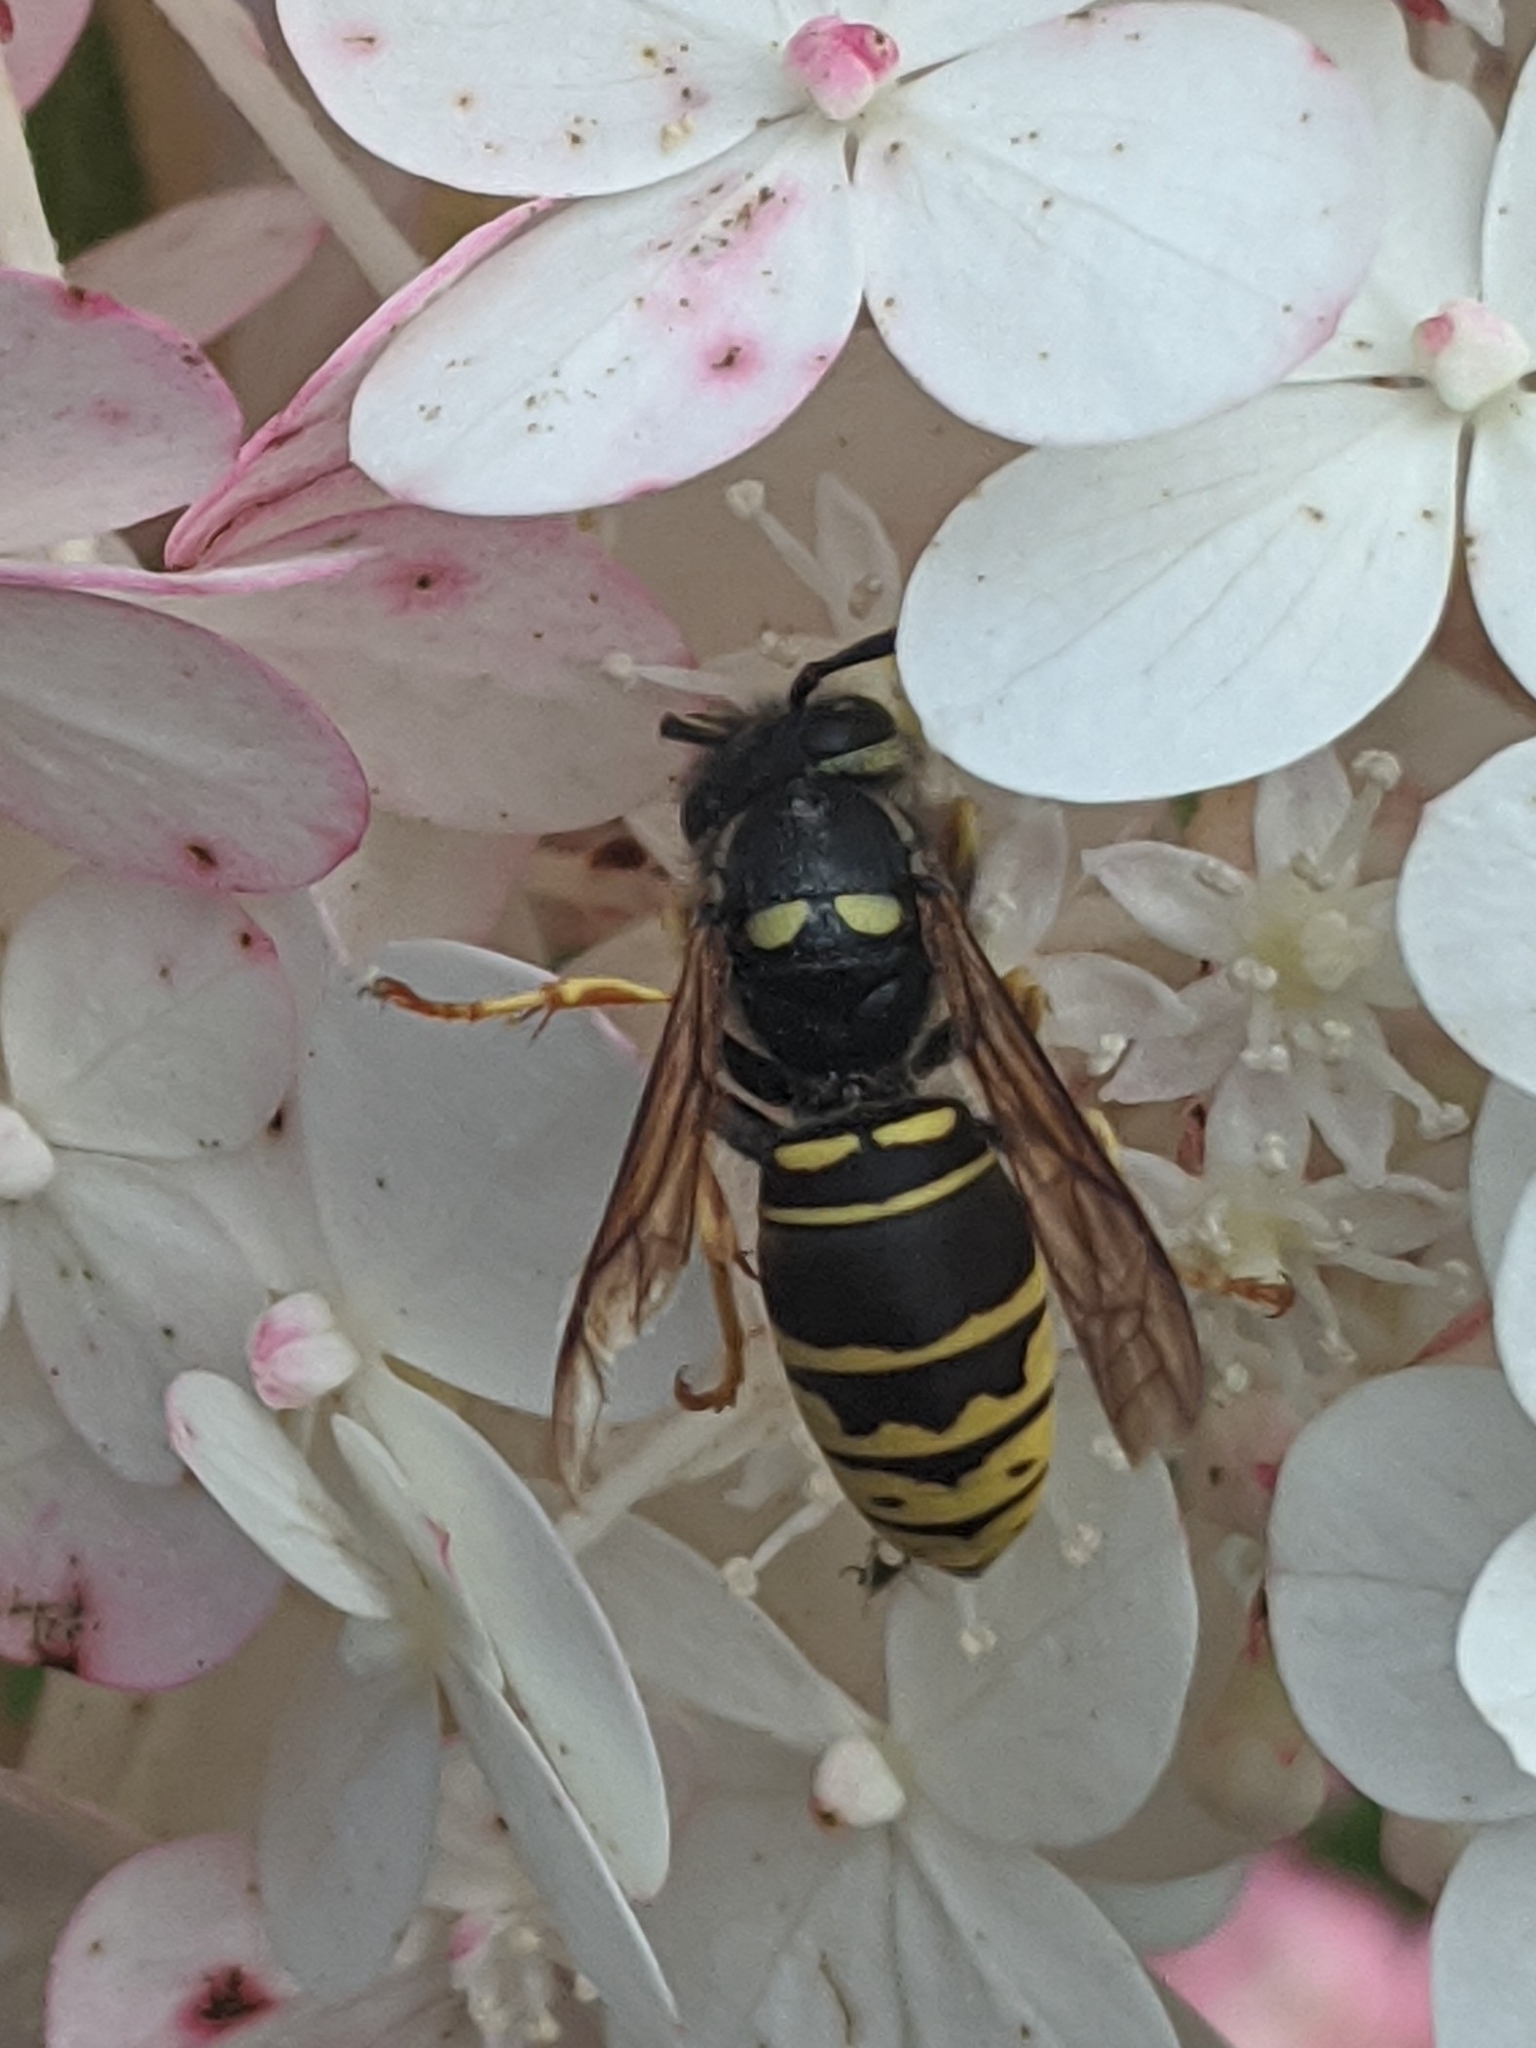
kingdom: Animalia
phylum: Arthropoda
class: Insecta
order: Hymenoptera
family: Vespidae
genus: Vespula
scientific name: Vespula vidua
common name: Widow yellowjacket
